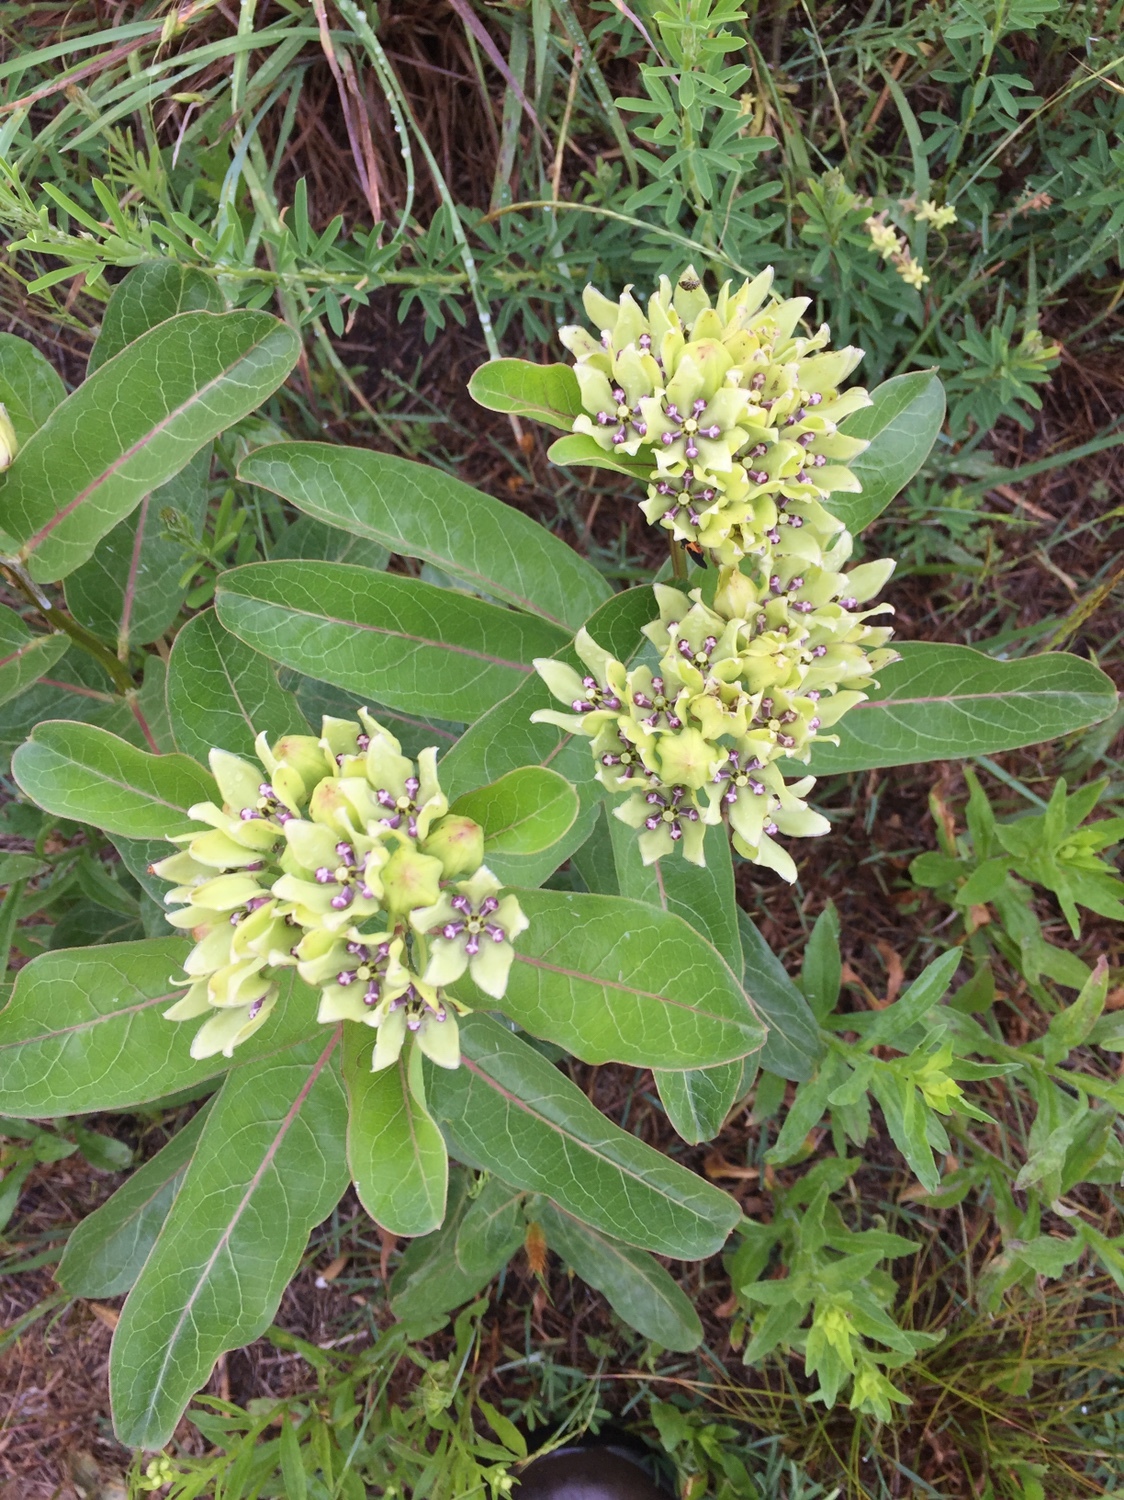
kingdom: Plantae
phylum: Tracheophyta
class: Magnoliopsida
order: Gentianales
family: Apocynaceae
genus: Asclepias
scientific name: Asclepias viridis
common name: Antelope-horns
